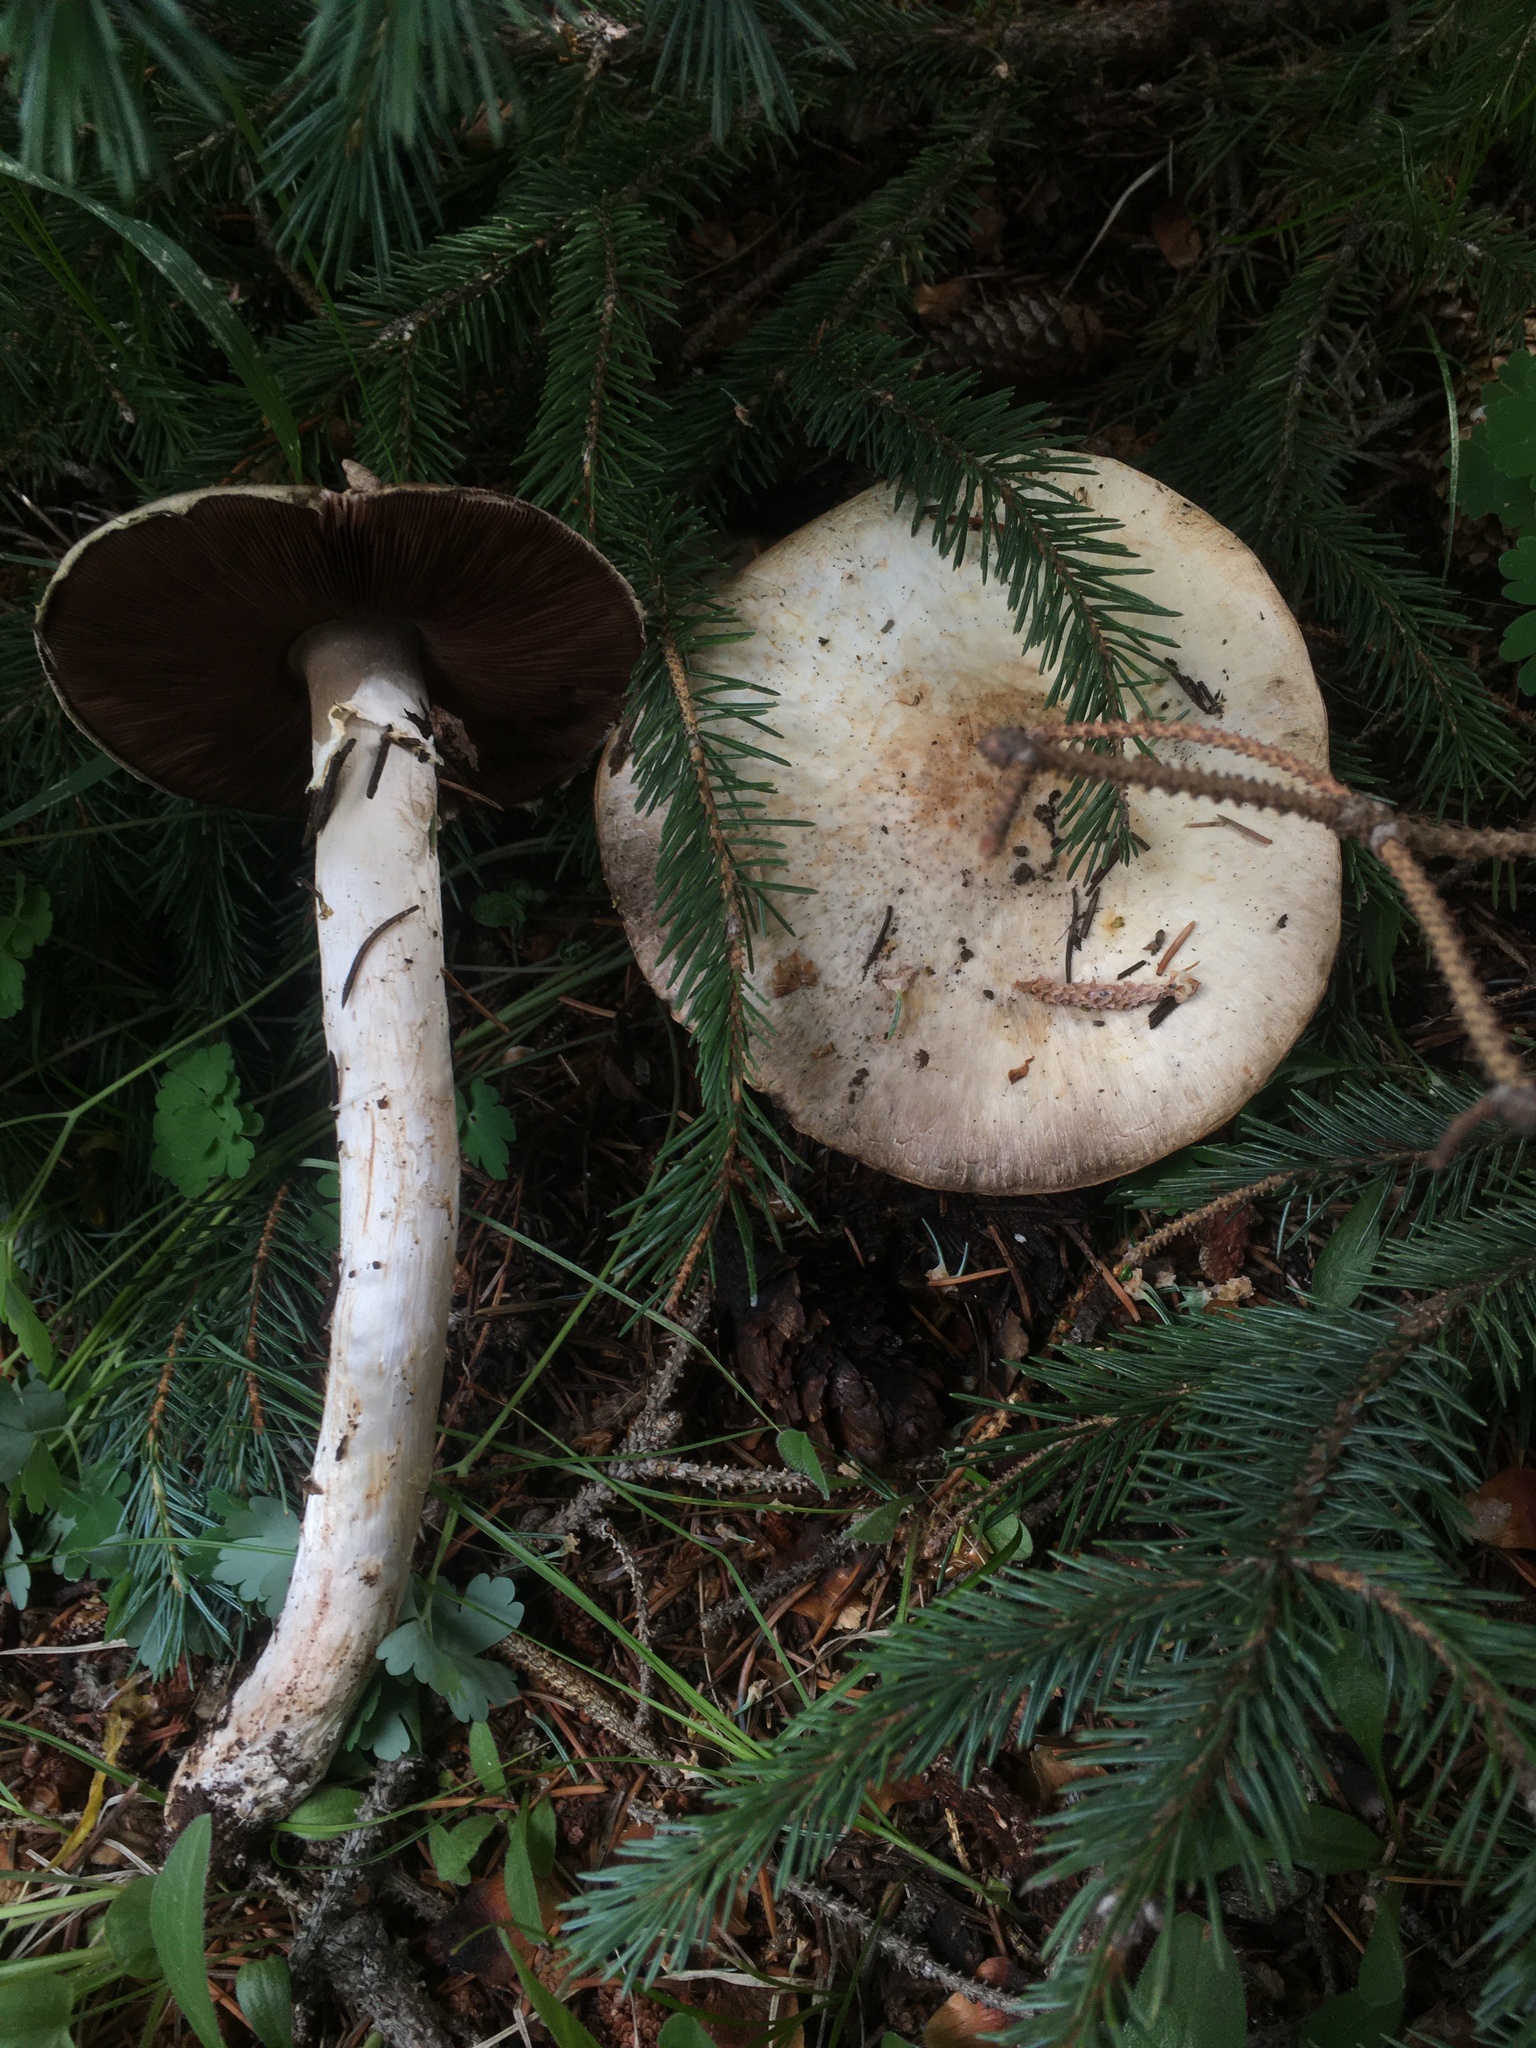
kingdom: Fungi
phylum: Basidiomycota
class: Agaricomycetes
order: Agaricales
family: Agaricaceae
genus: Agaricus
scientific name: Agaricus sylvaticus
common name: Blushing wood mushroom
